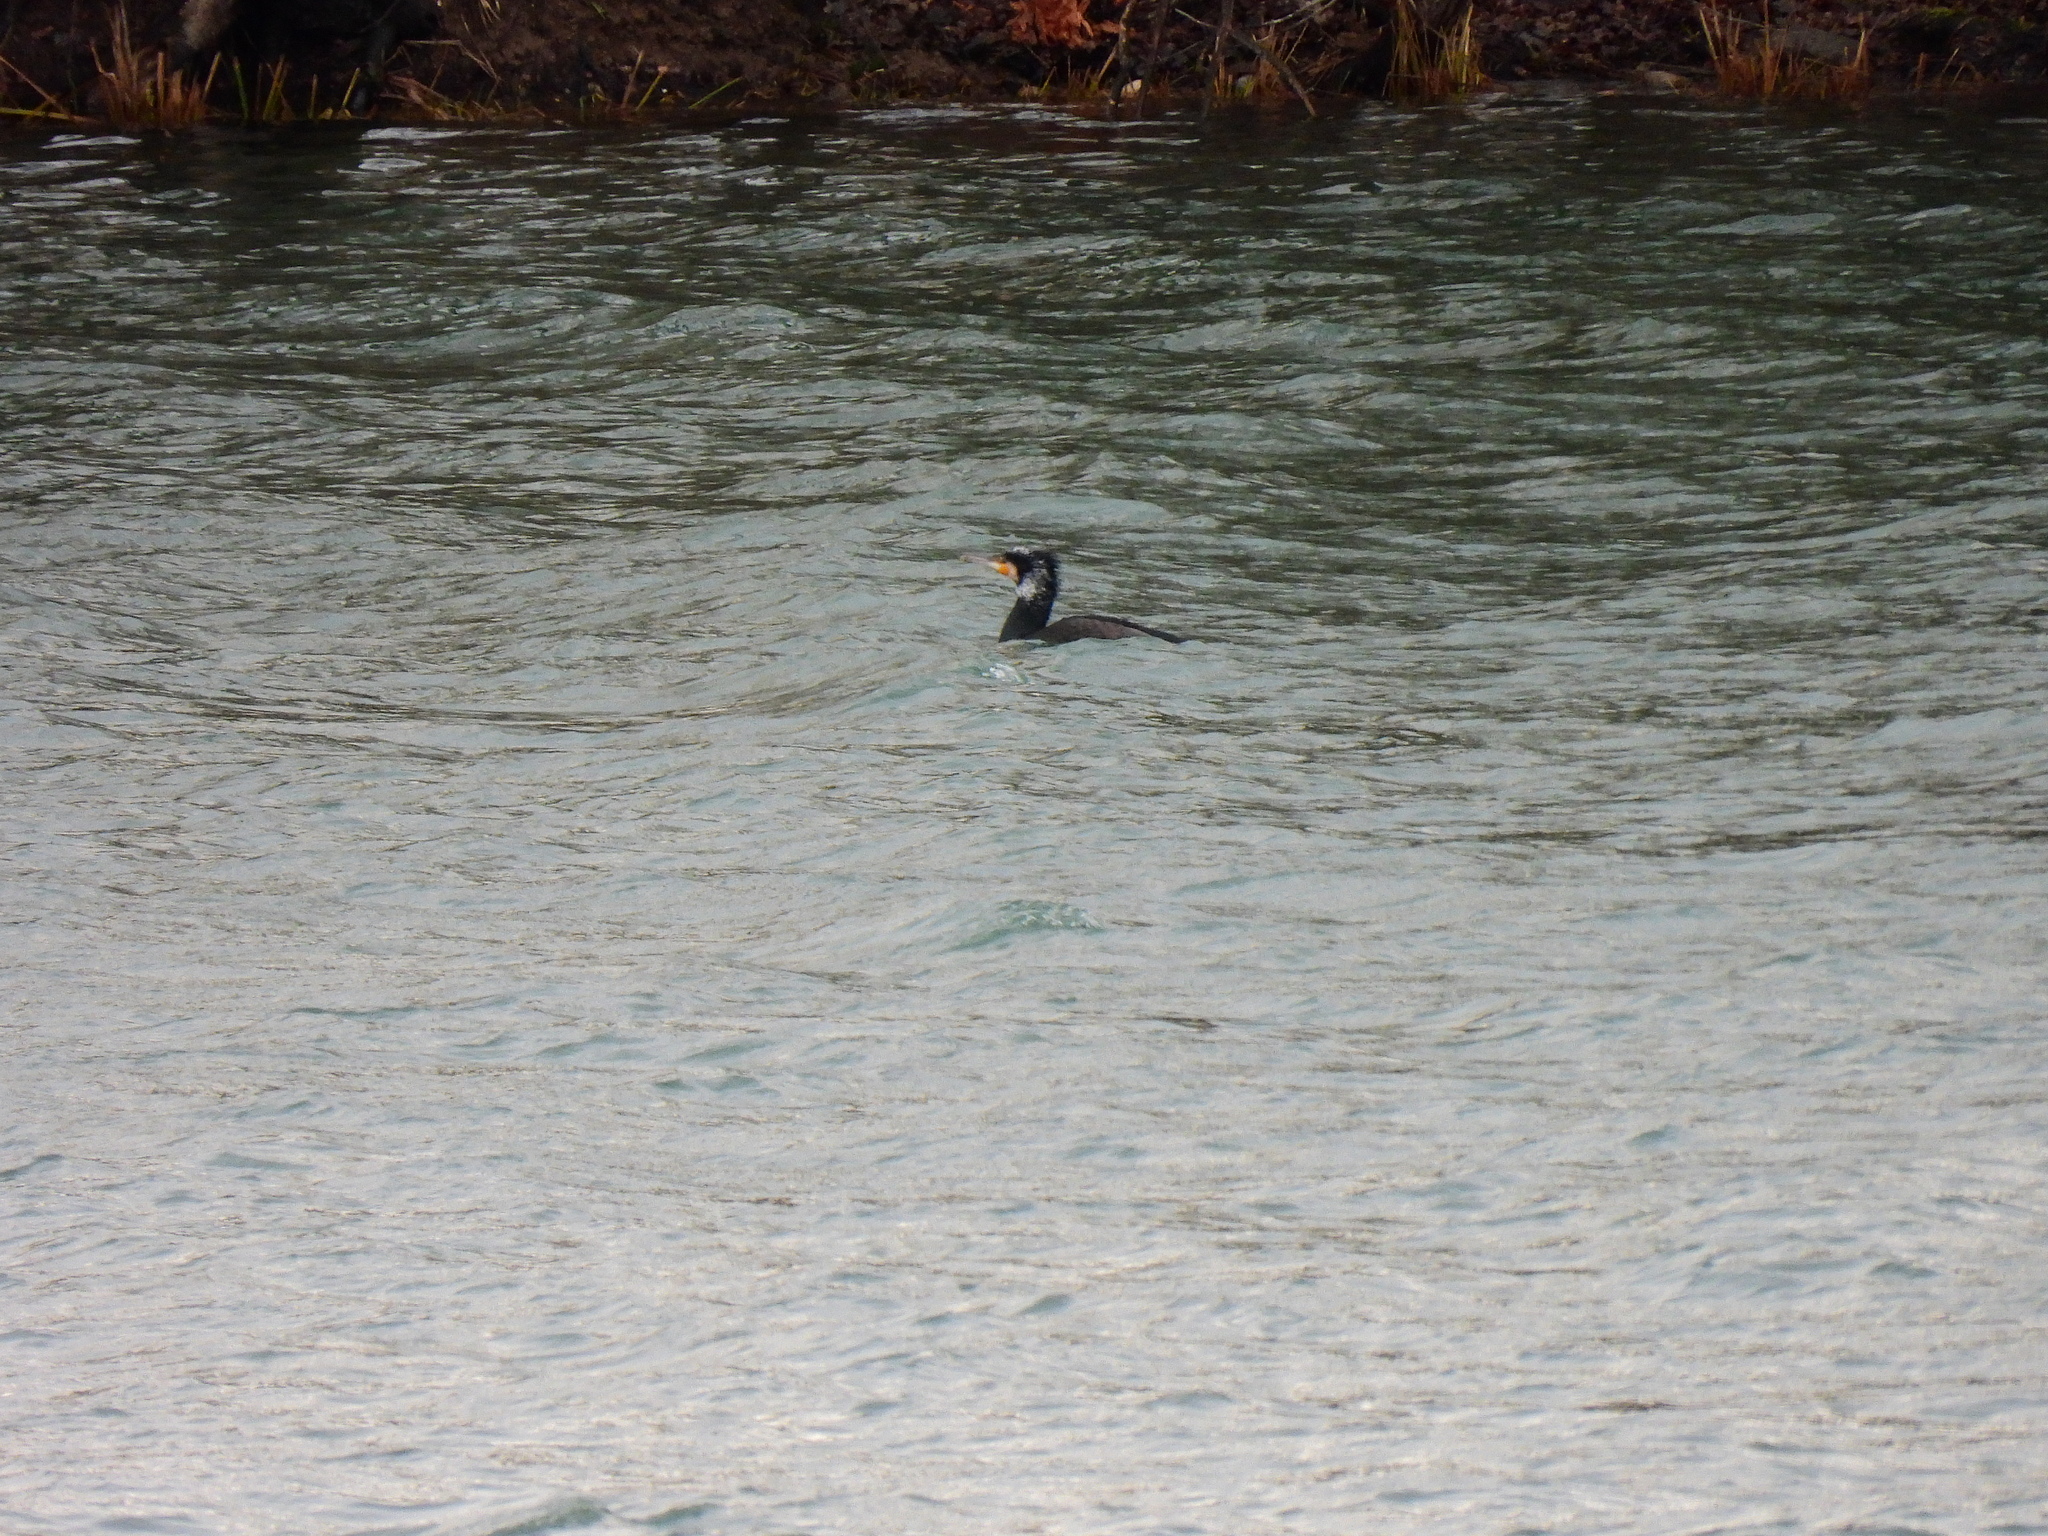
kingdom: Animalia
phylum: Chordata
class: Aves
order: Suliformes
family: Phalacrocoracidae
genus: Phalacrocorax
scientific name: Phalacrocorax carbo
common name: Great cormorant
